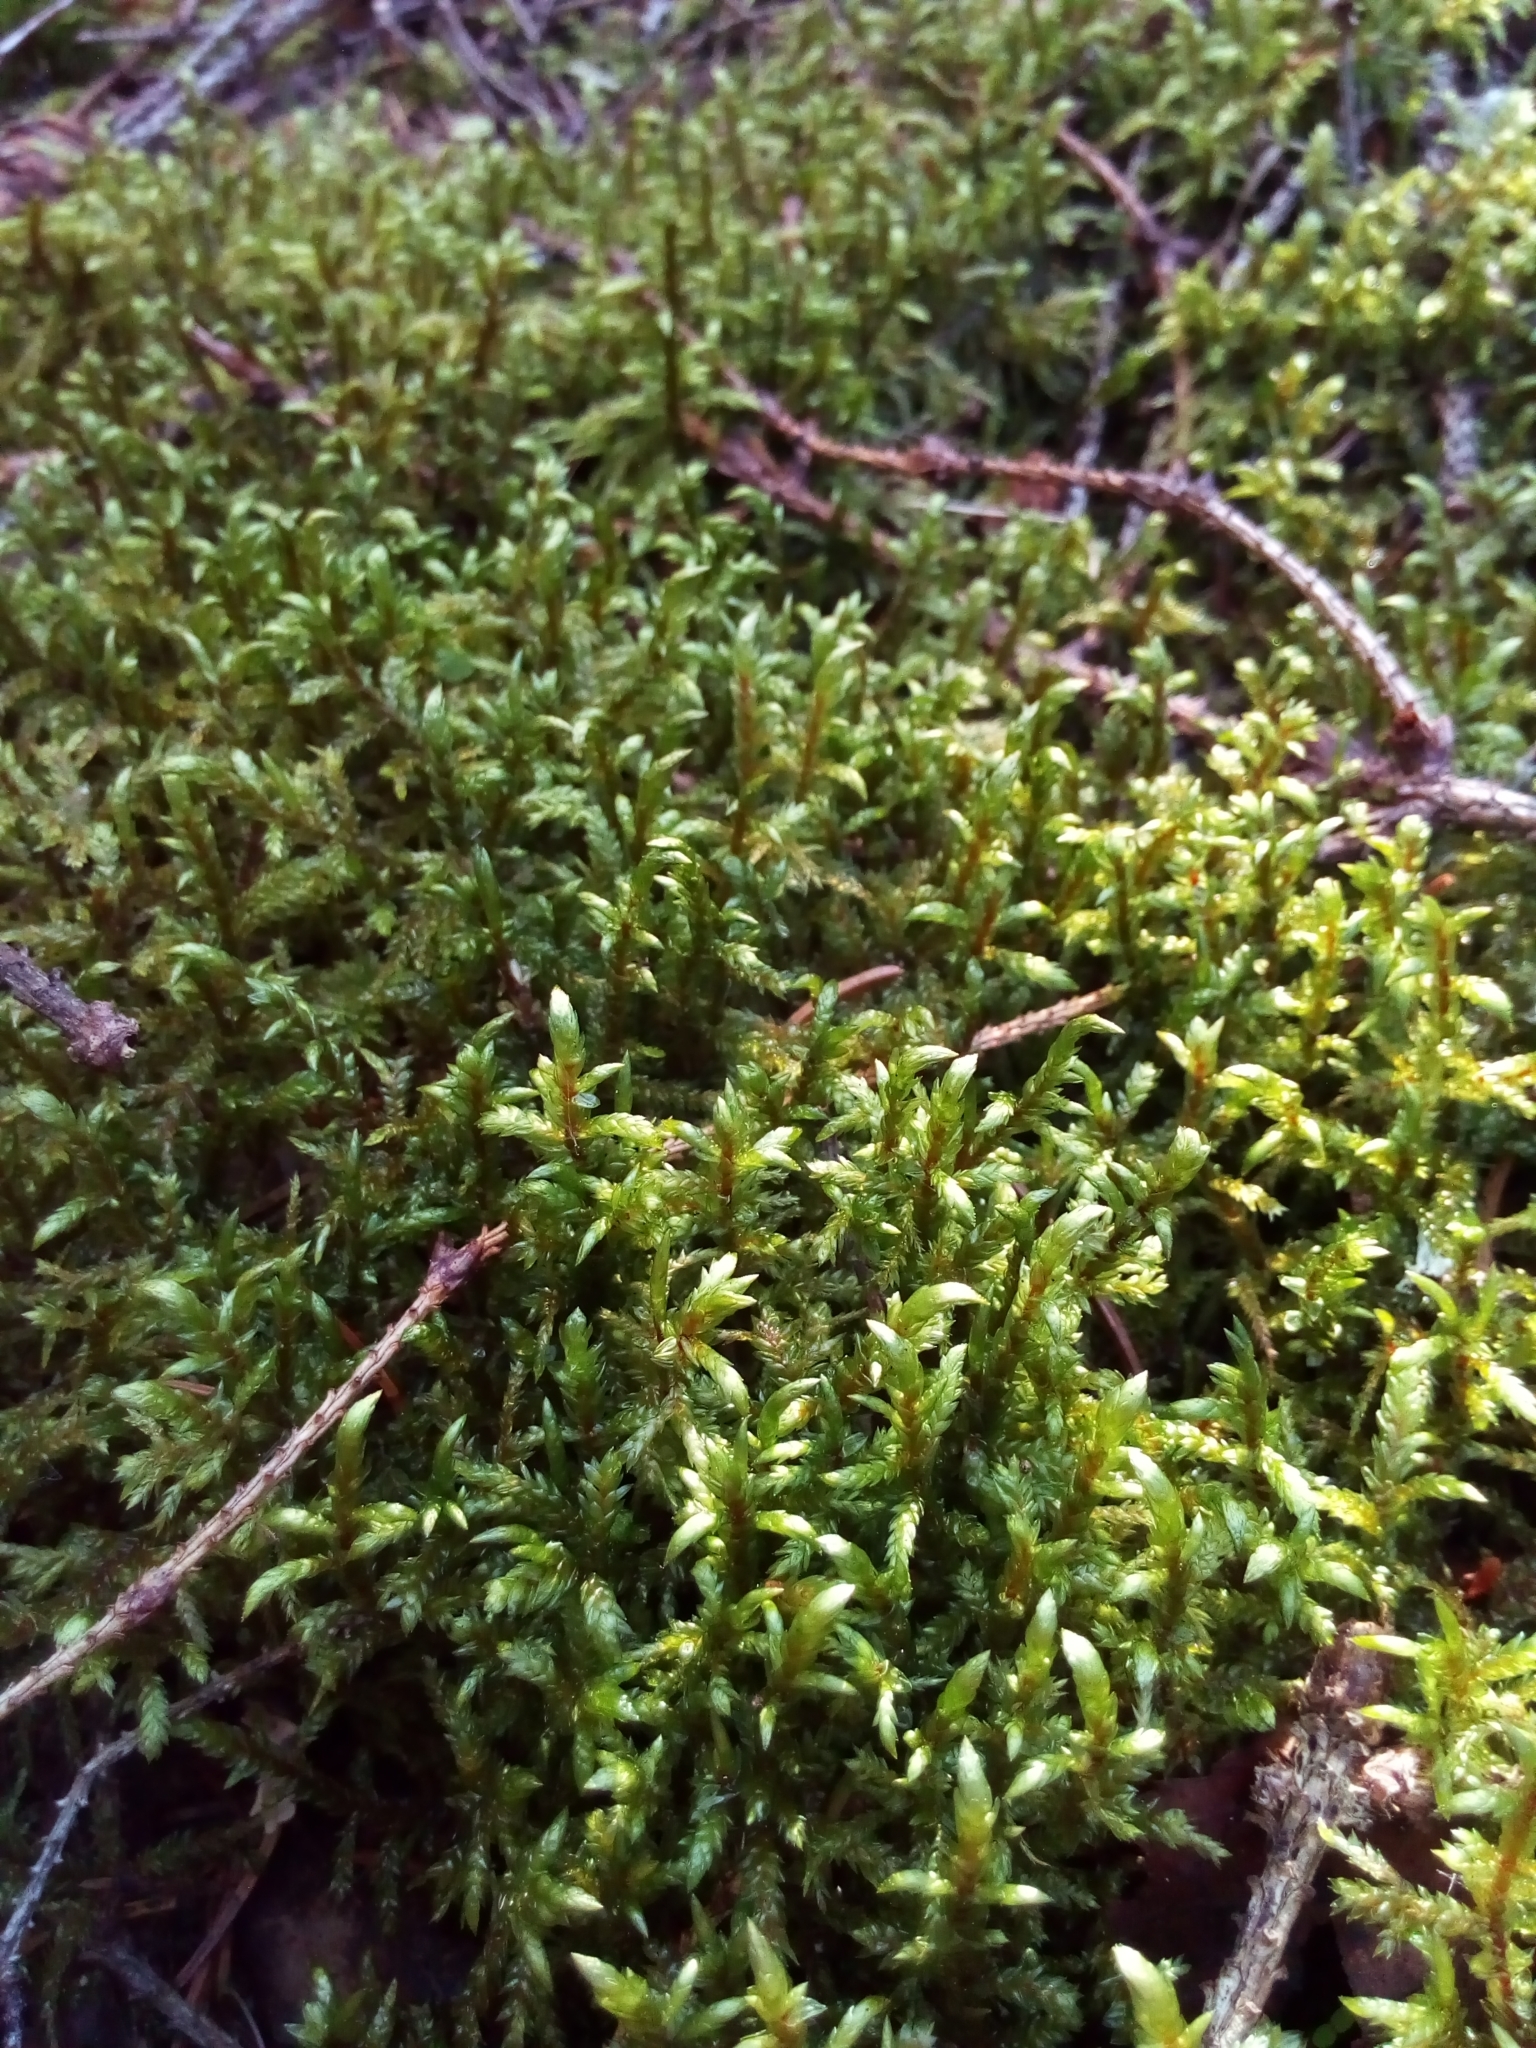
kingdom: Plantae
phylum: Bryophyta
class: Bryopsida
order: Hypnales
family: Hylocomiaceae
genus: Pleurozium
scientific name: Pleurozium schreberi
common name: Red-stemmed feather moss
